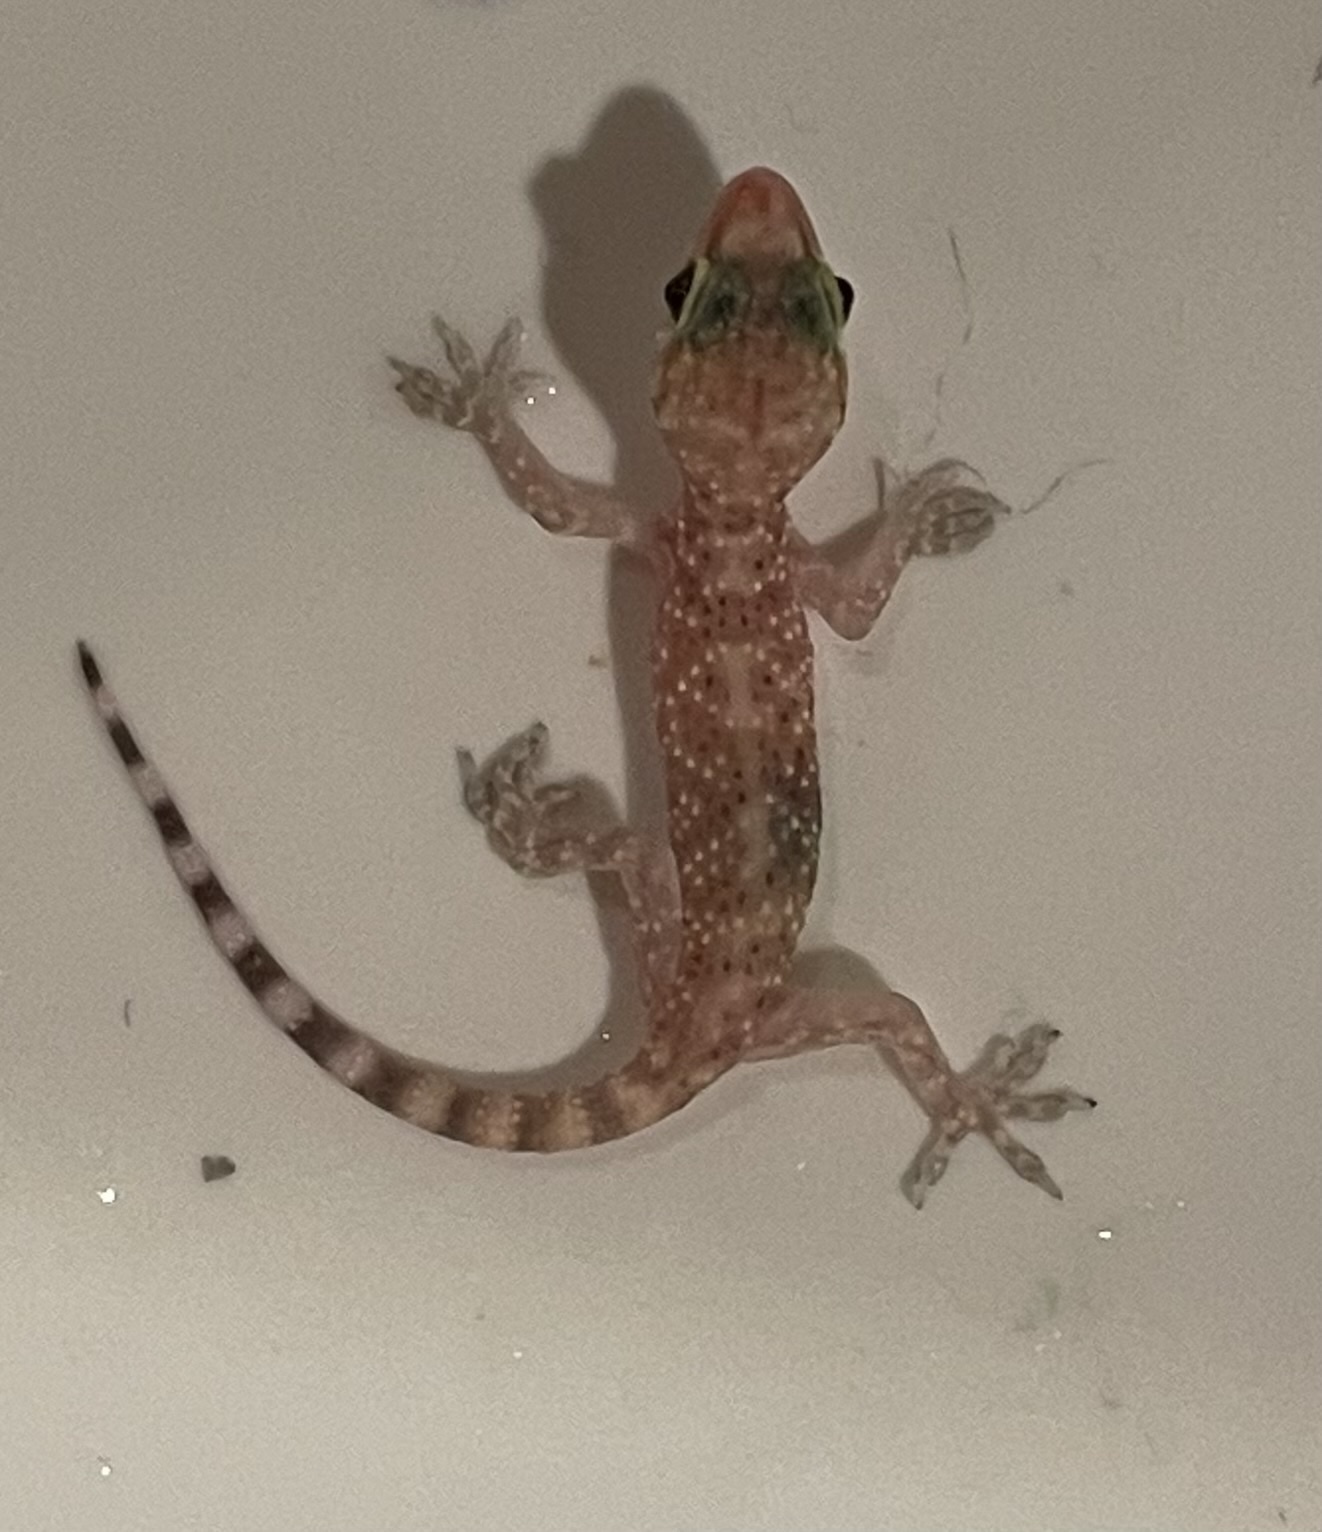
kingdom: Animalia
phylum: Chordata
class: Squamata
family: Gekkonidae
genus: Hemidactylus
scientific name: Hemidactylus turcicus
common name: Turkish gecko
